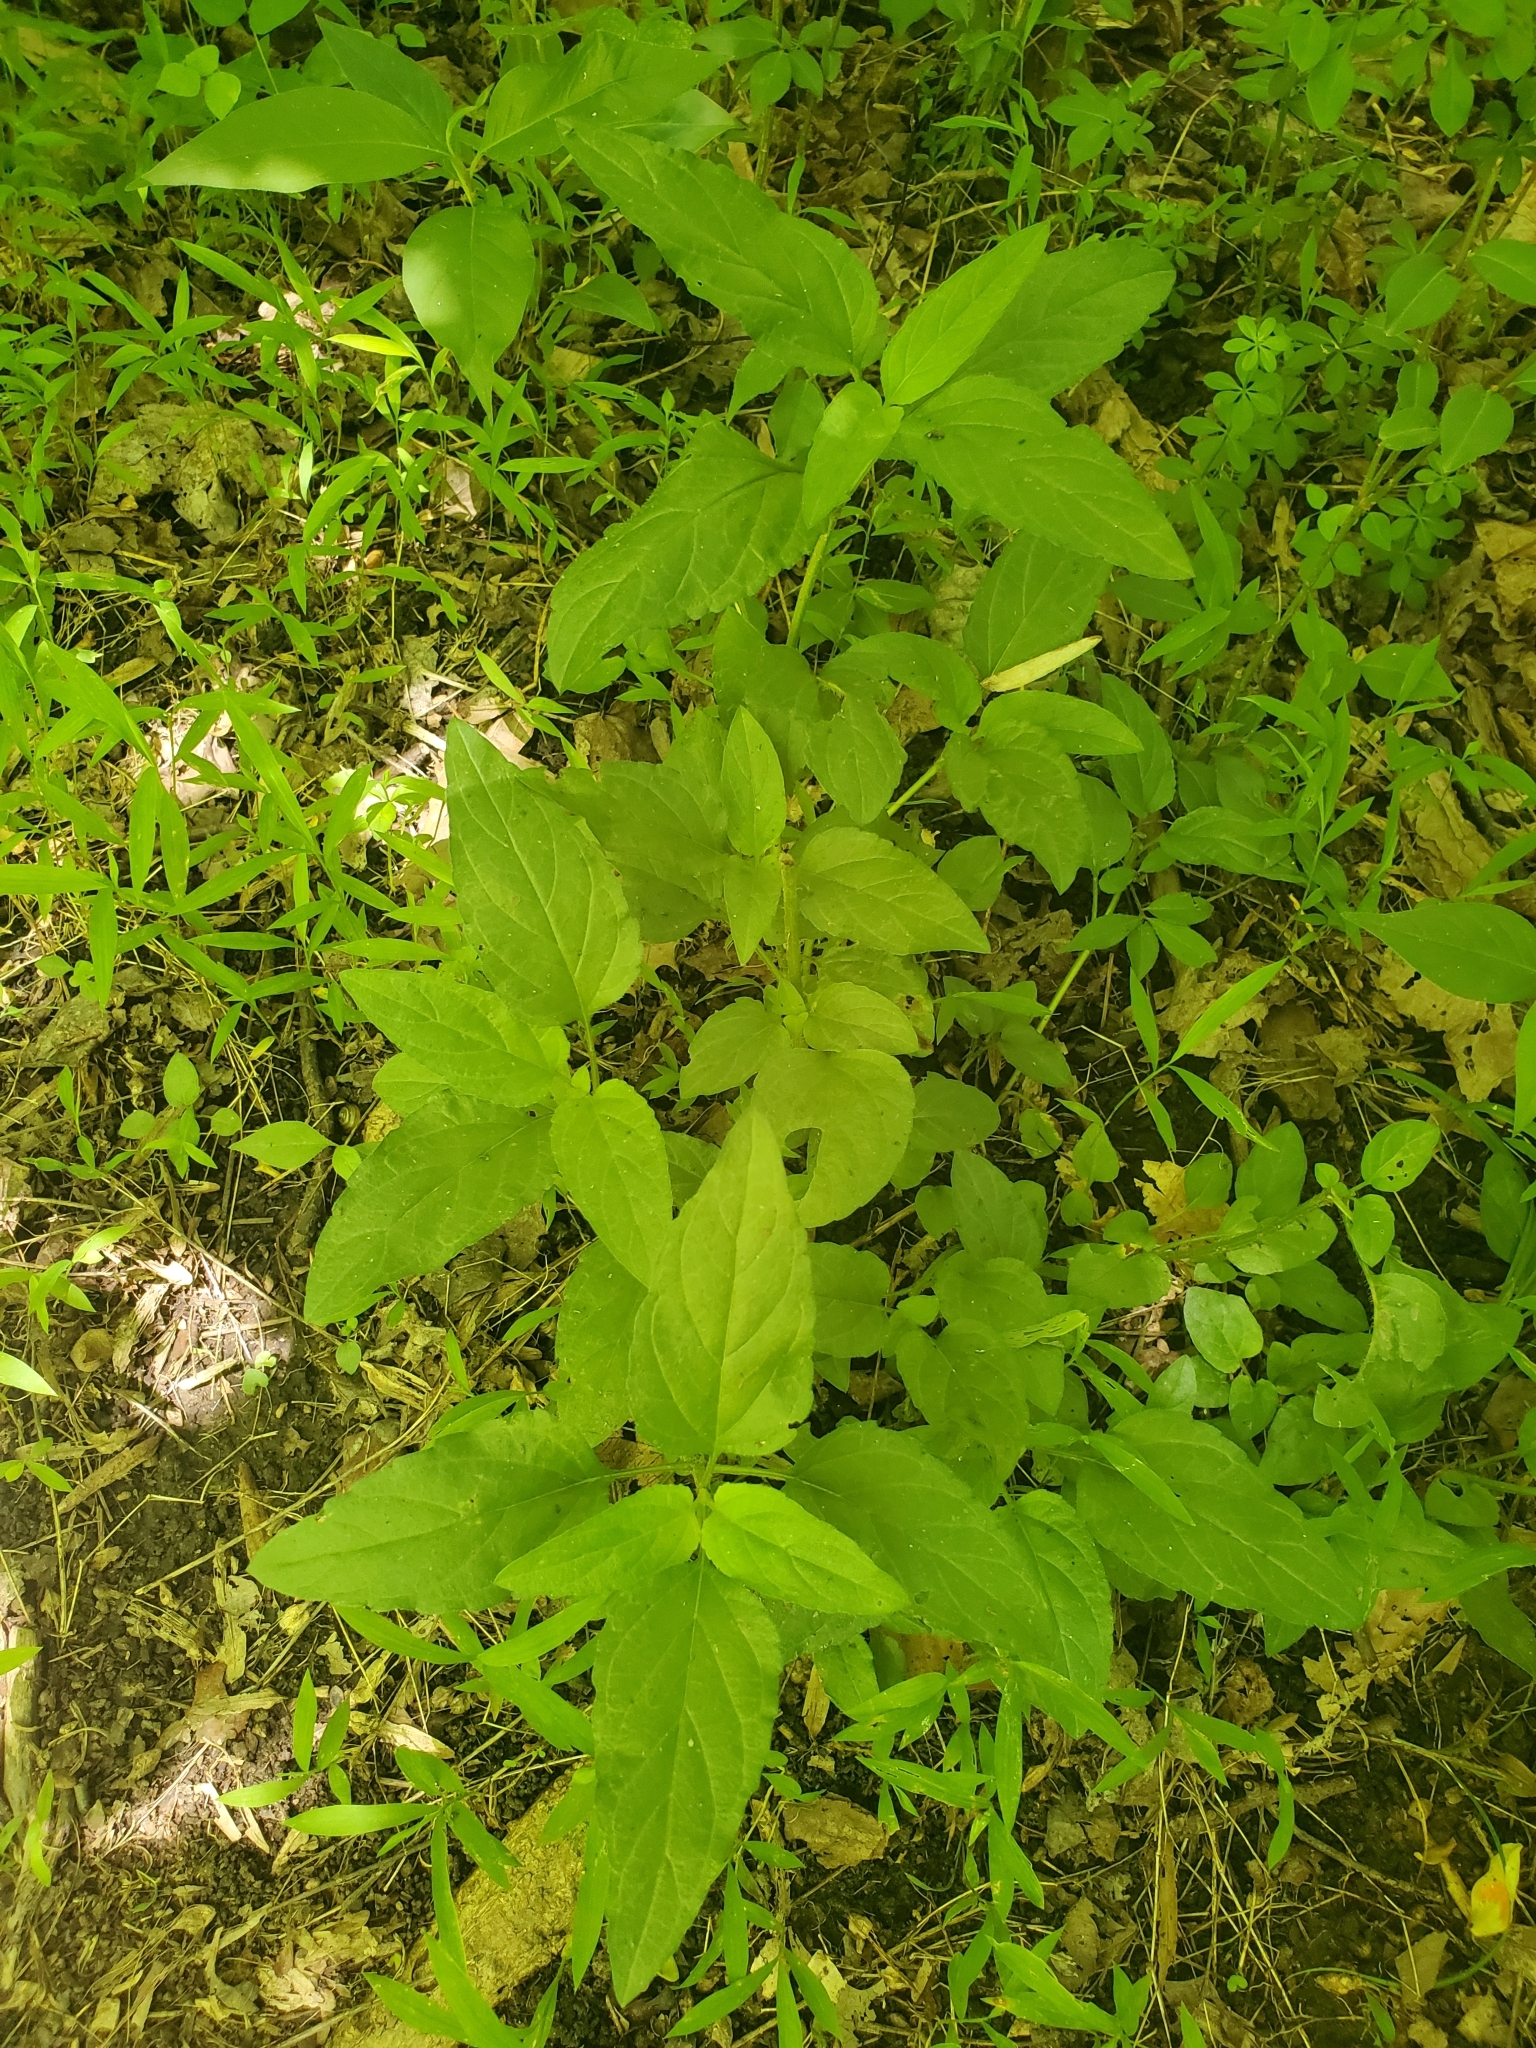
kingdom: Plantae
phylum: Tracheophyta
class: Magnoliopsida
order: Lamiales
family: Lamiaceae
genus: Prunella
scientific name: Prunella vulgaris
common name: Heal-all
